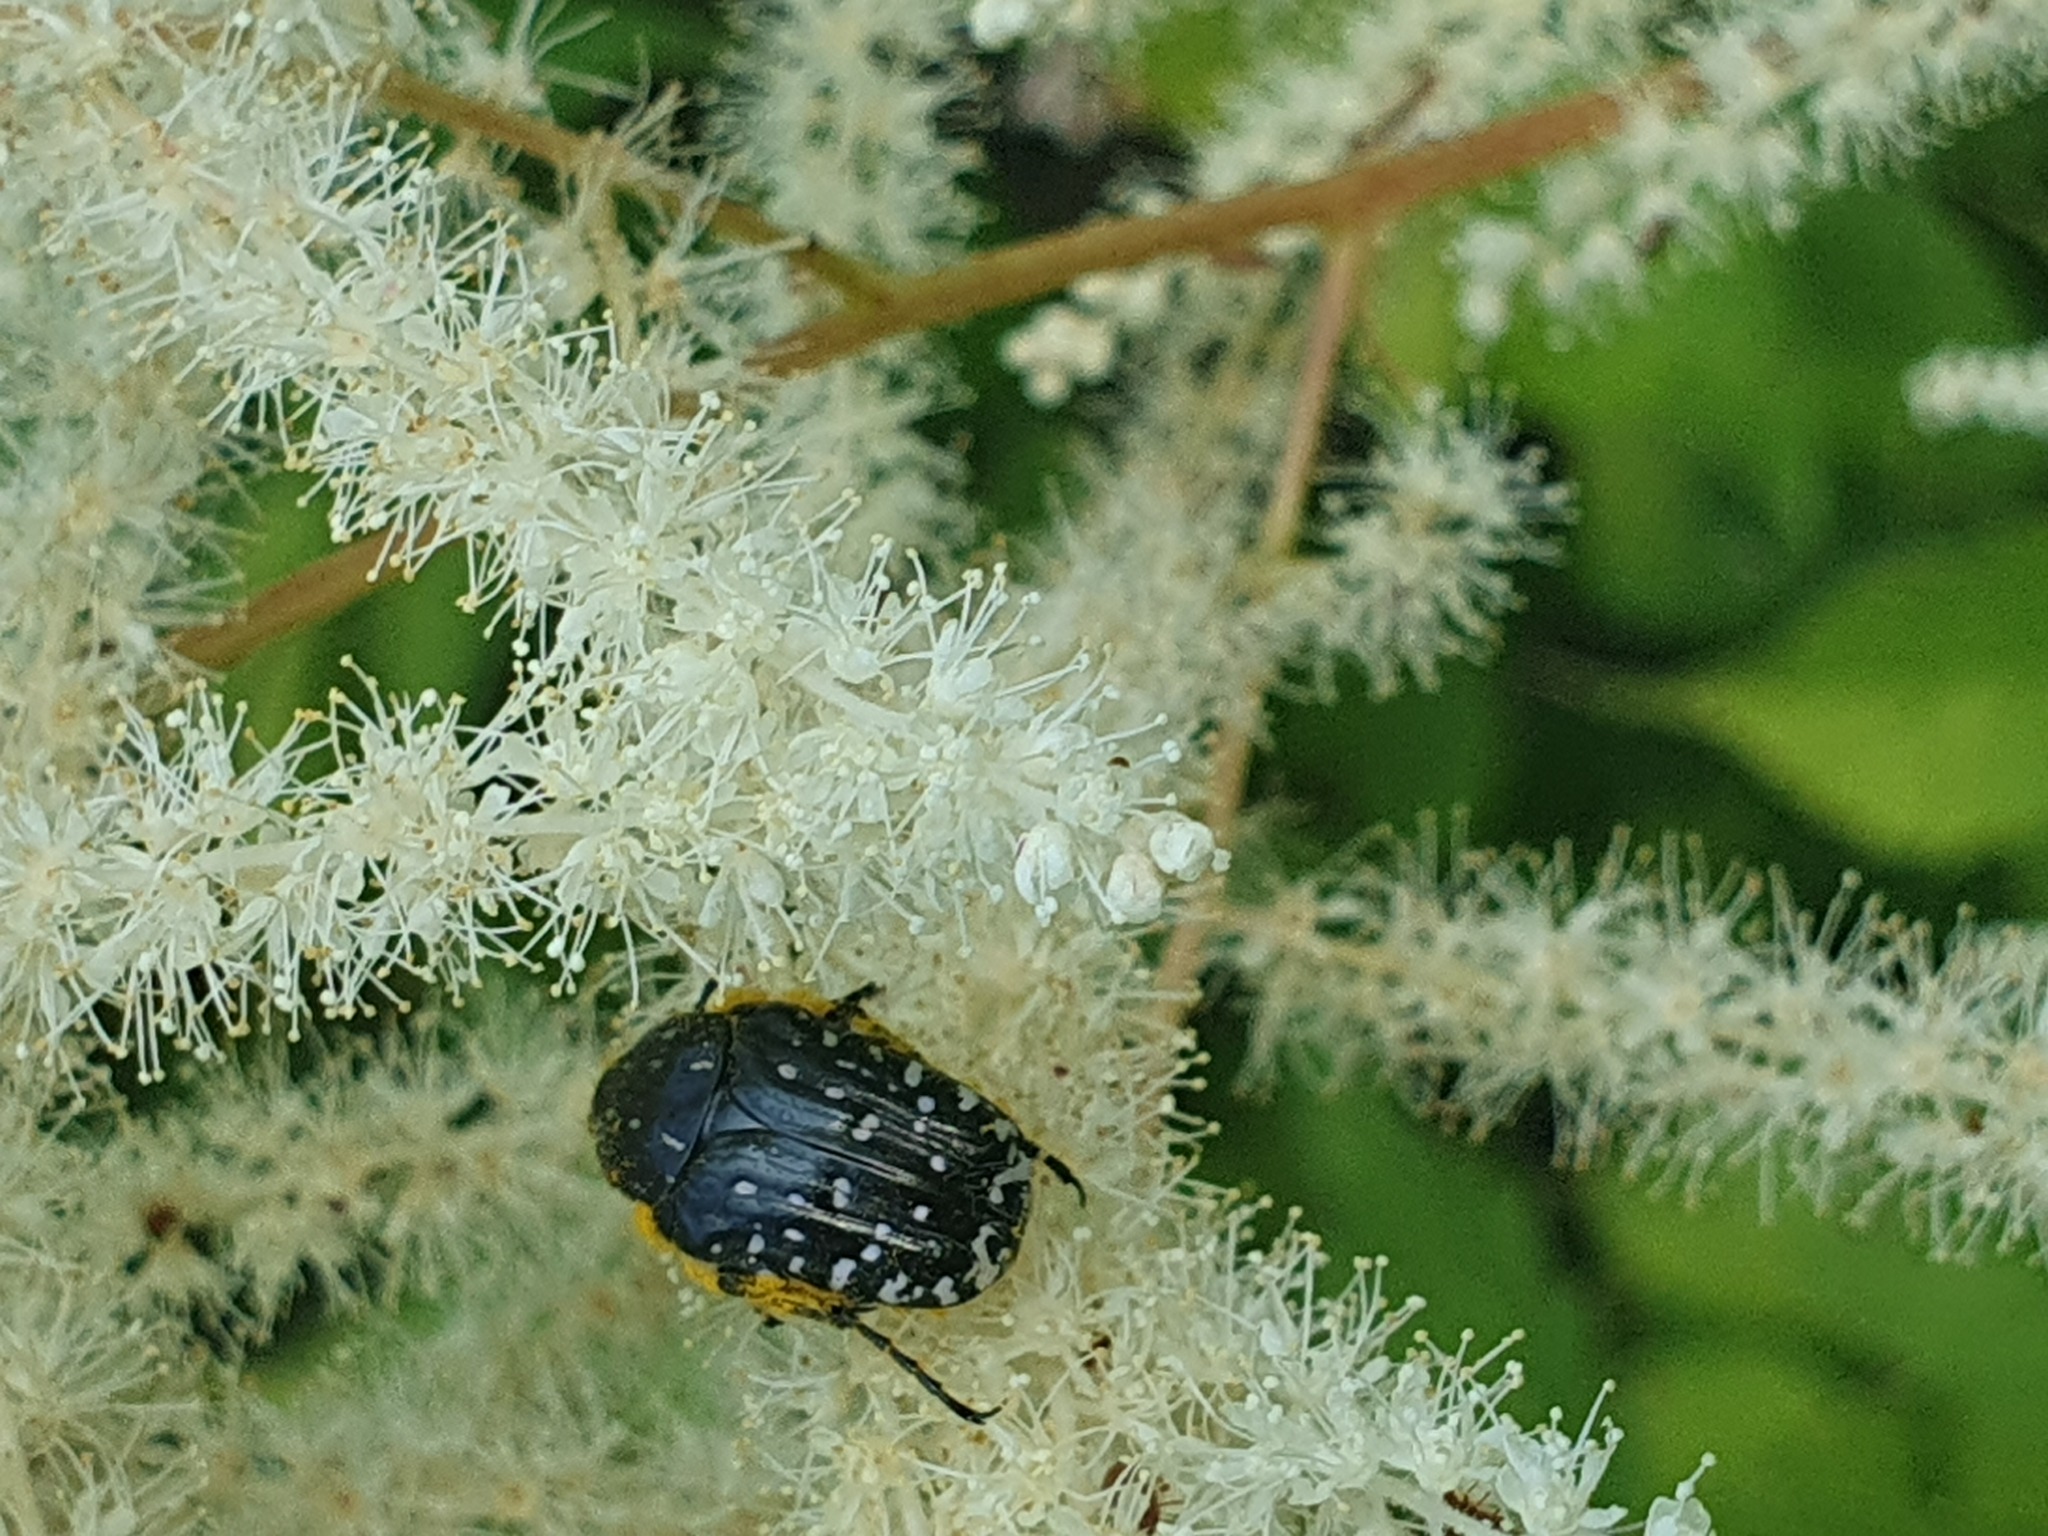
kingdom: Animalia
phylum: Arthropoda
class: Insecta
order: Coleoptera
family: Scarabaeidae
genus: Oxythyrea
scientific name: Oxythyrea funesta
